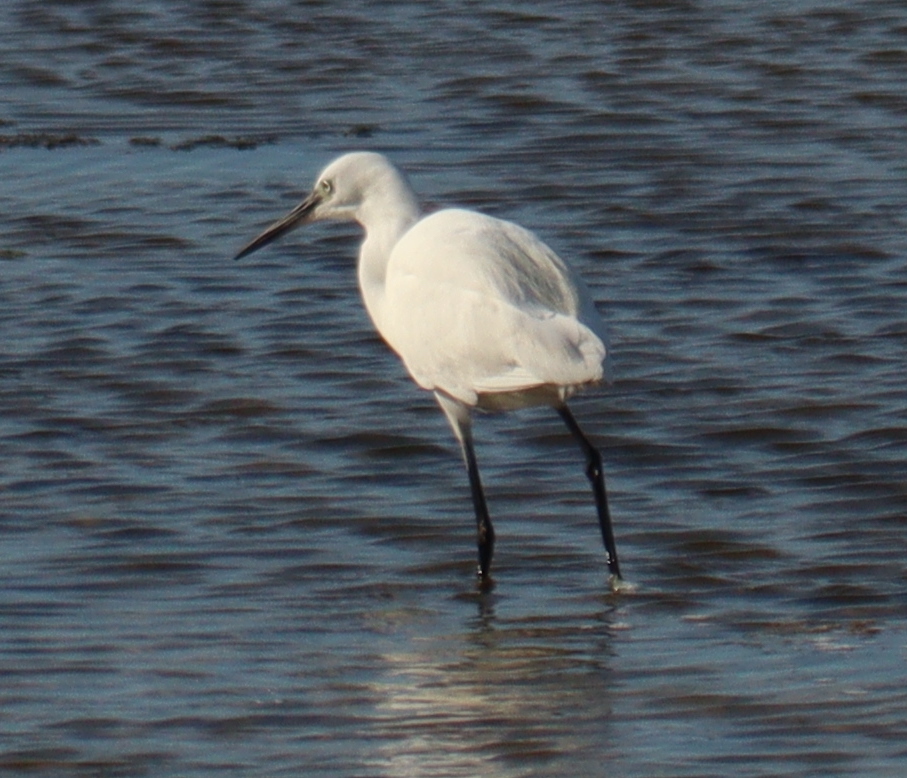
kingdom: Animalia
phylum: Chordata
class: Aves
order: Pelecaniformes
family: Ardeidae
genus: Egretta
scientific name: Egretta garzetta
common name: Little egret
